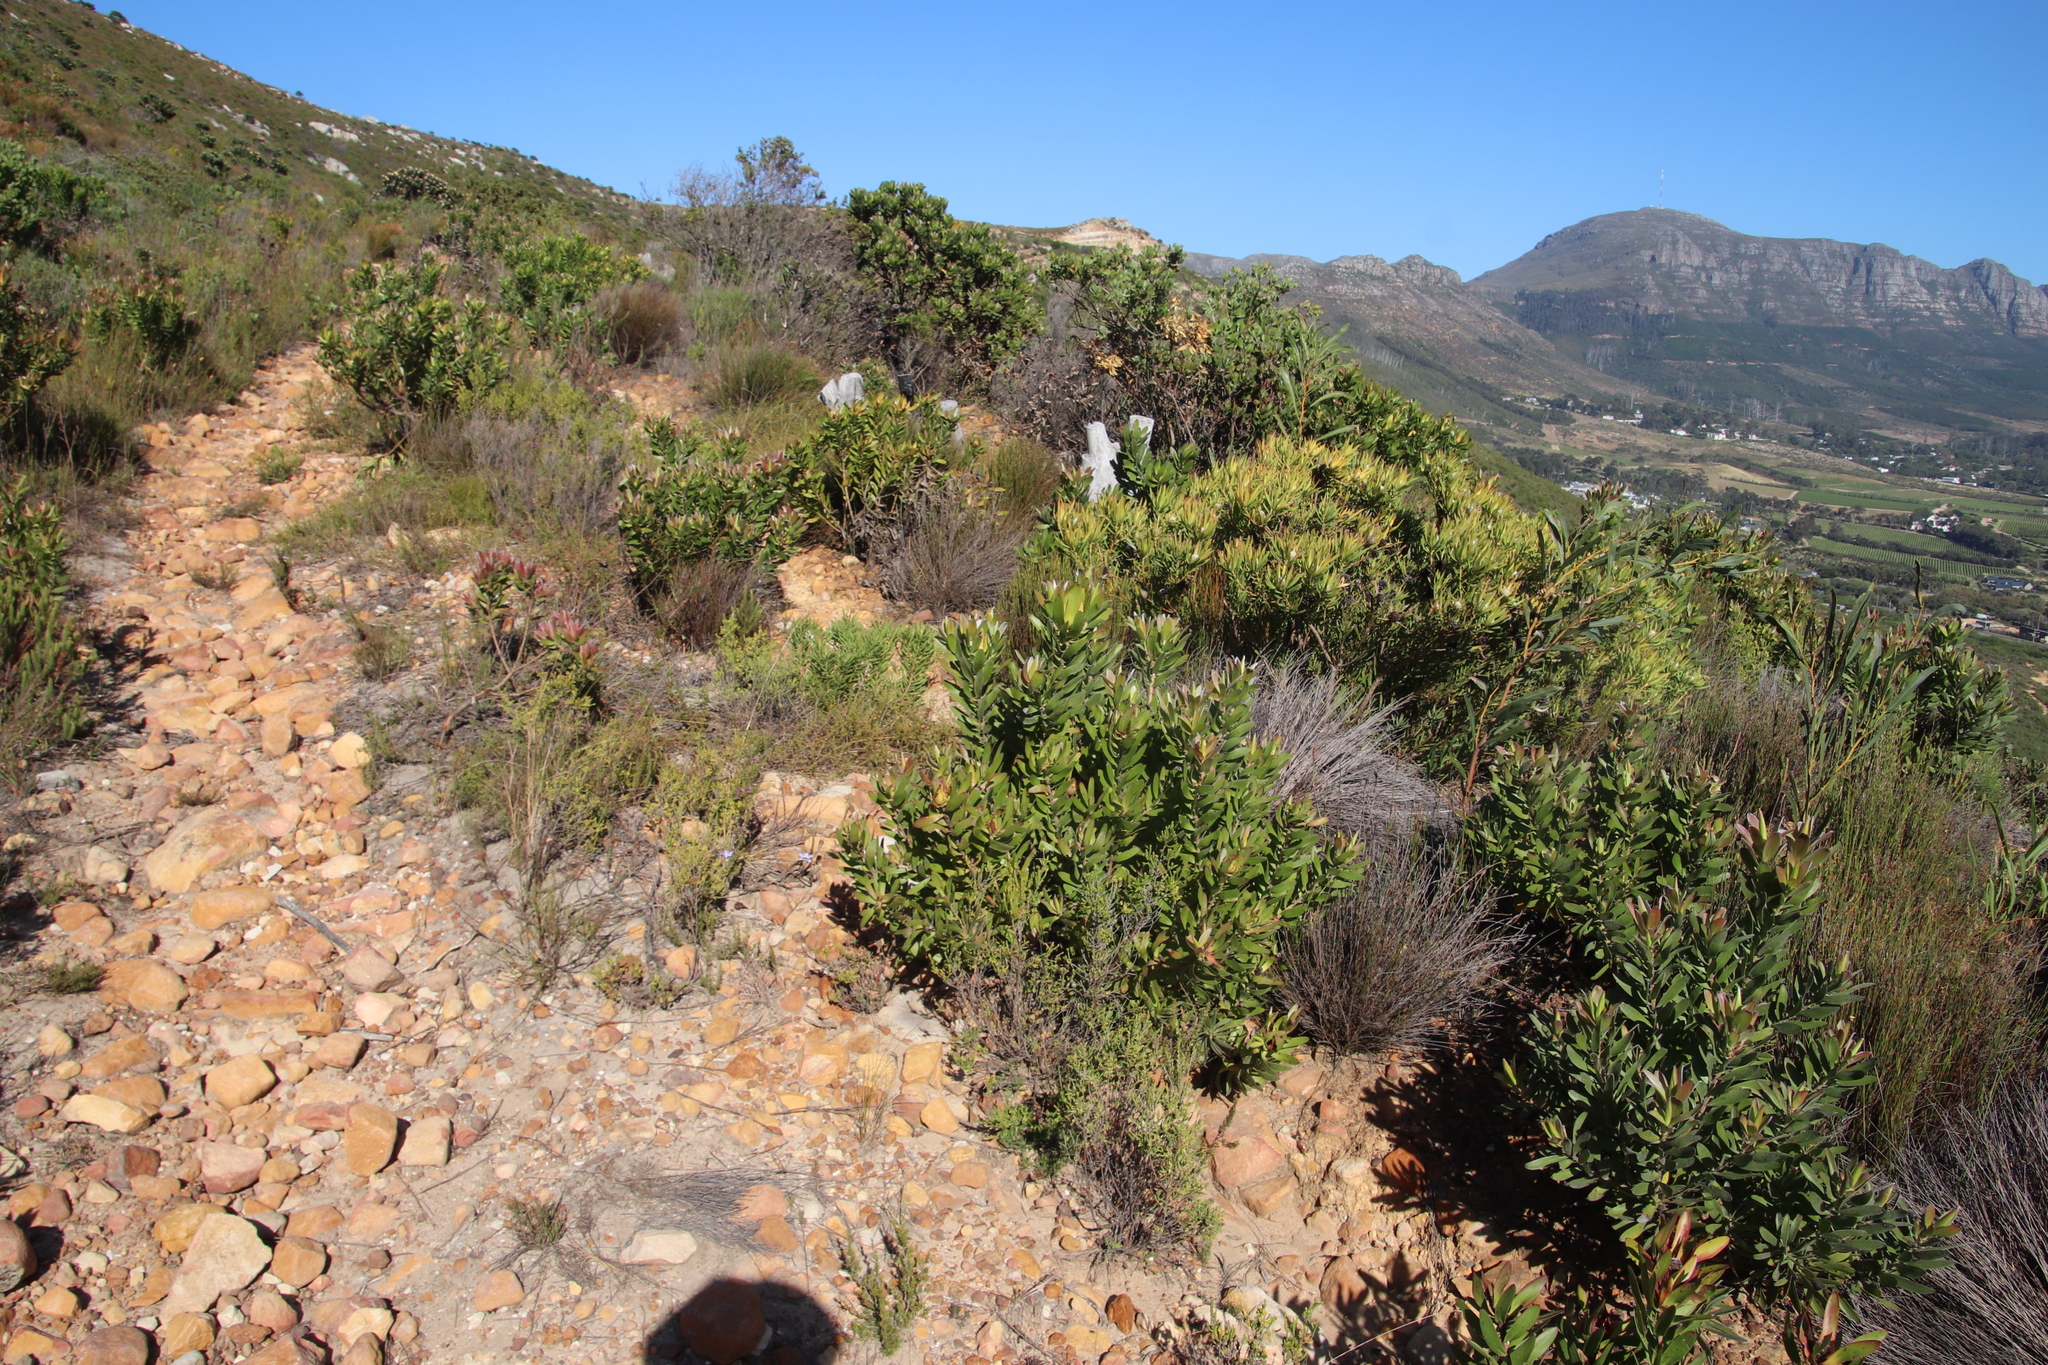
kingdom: Plantae
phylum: Tracheophyta
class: Magnoliopsida
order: Proteales
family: Proteaceae
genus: Leucadendron
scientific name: Leucadendron laureolum
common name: Golden sunshinebush
